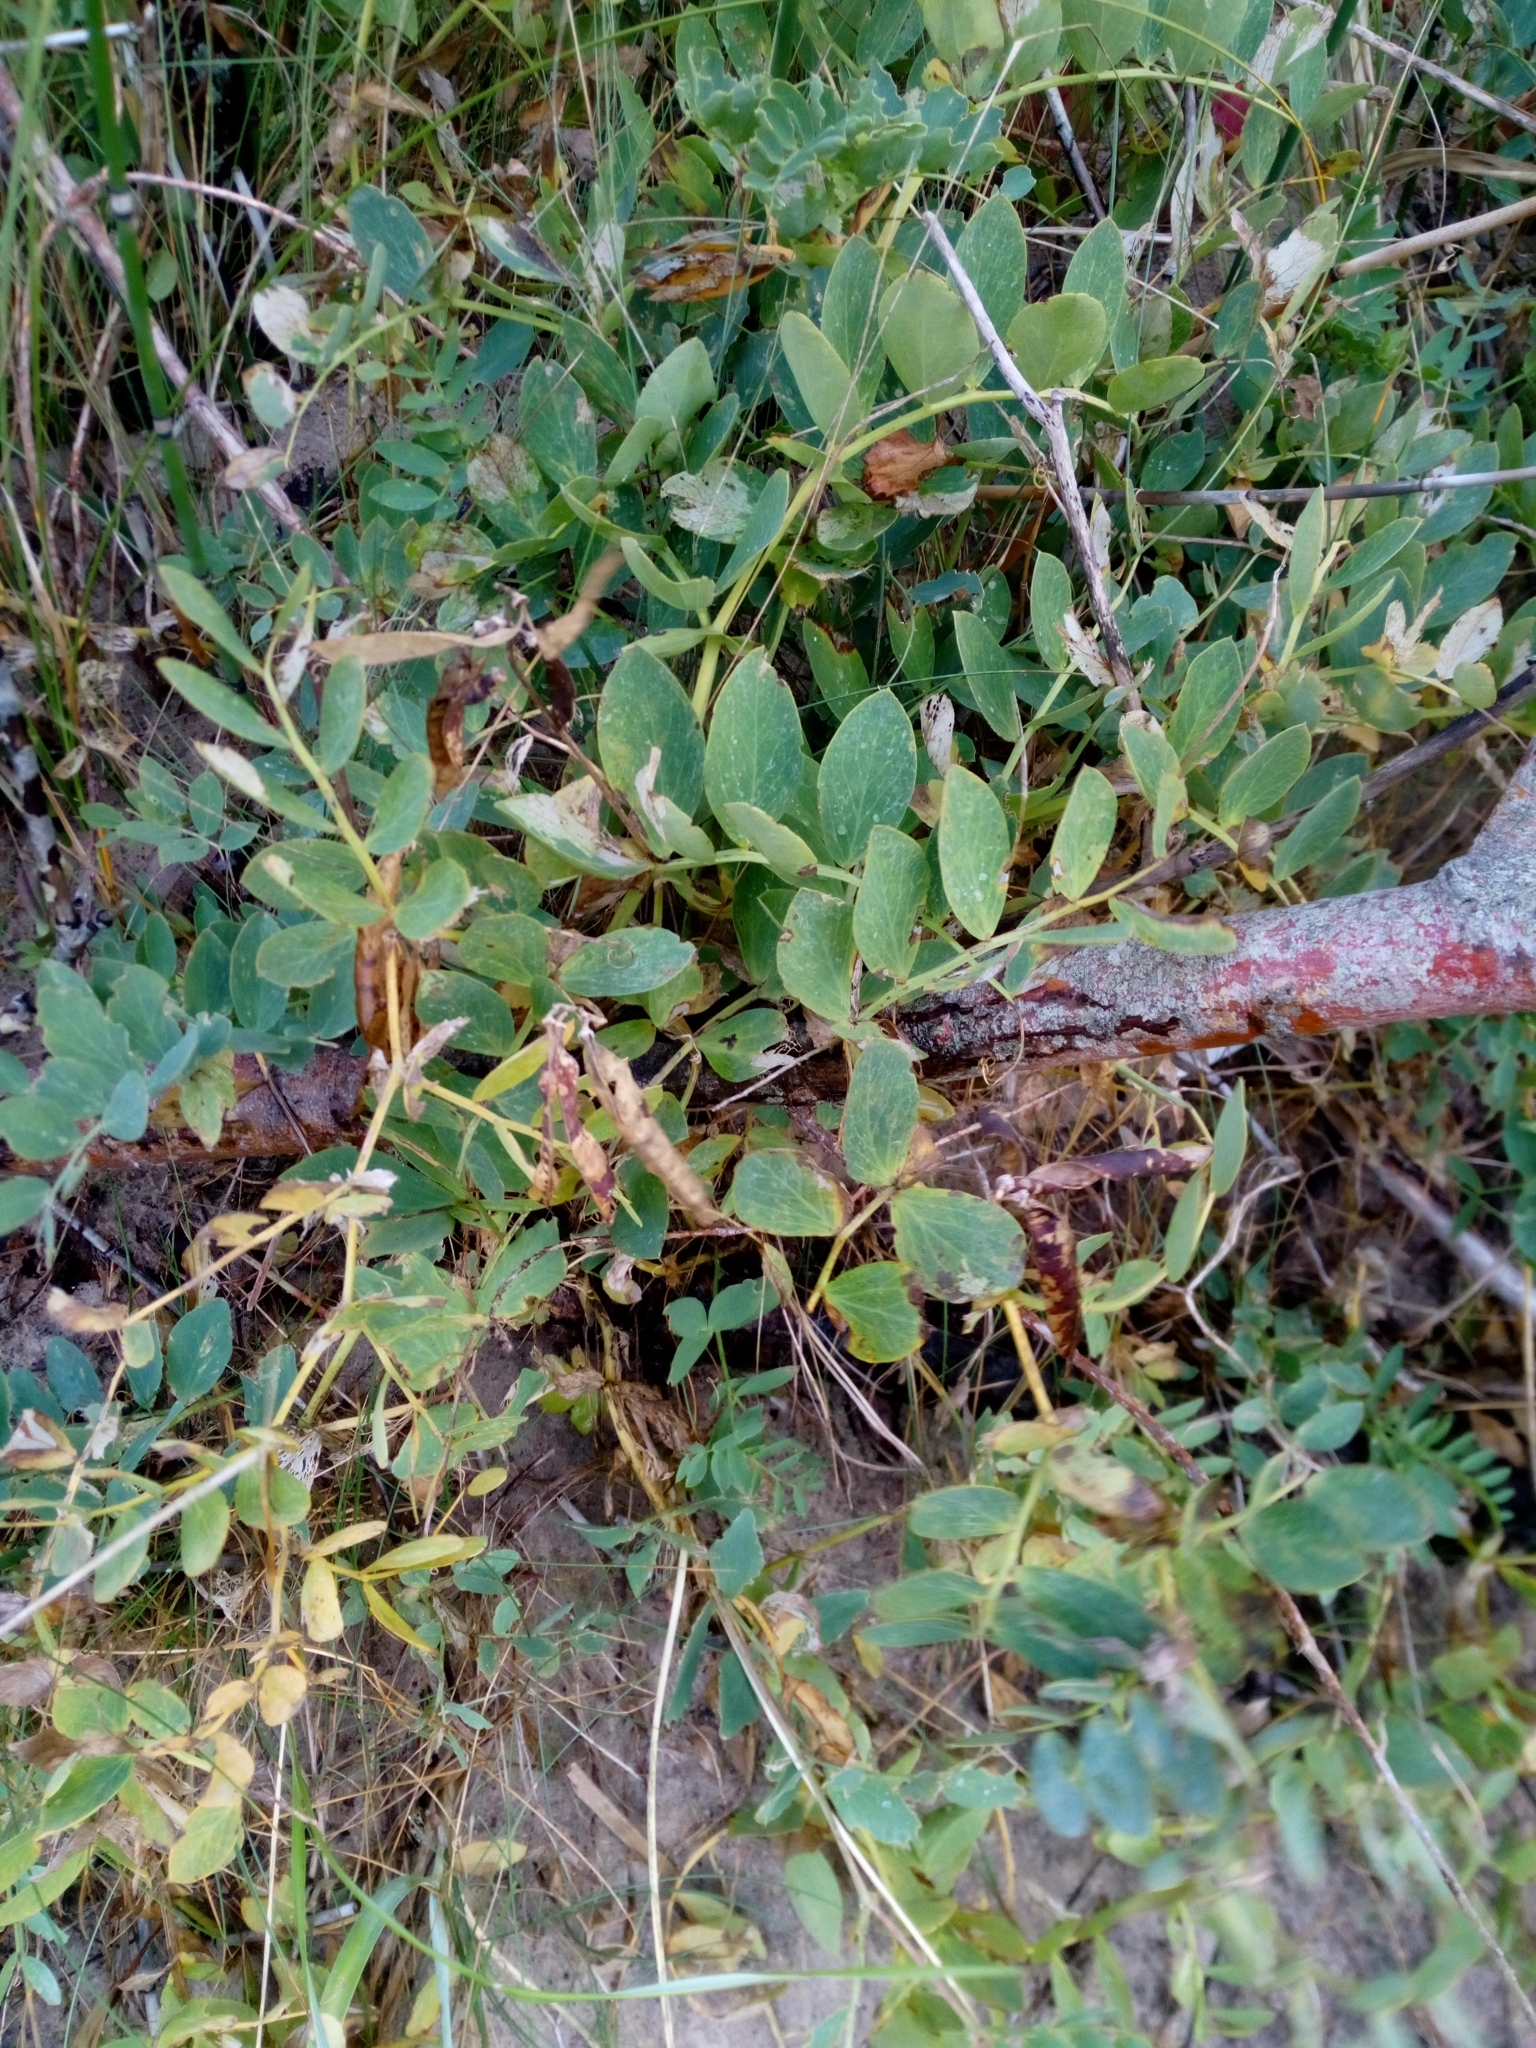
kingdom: Plantae
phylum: Tracheophyta
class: Magnoliopsida
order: Fabales
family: Fabaceae
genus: Lathyrus
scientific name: Lathyrus japonicus
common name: Sea pea
